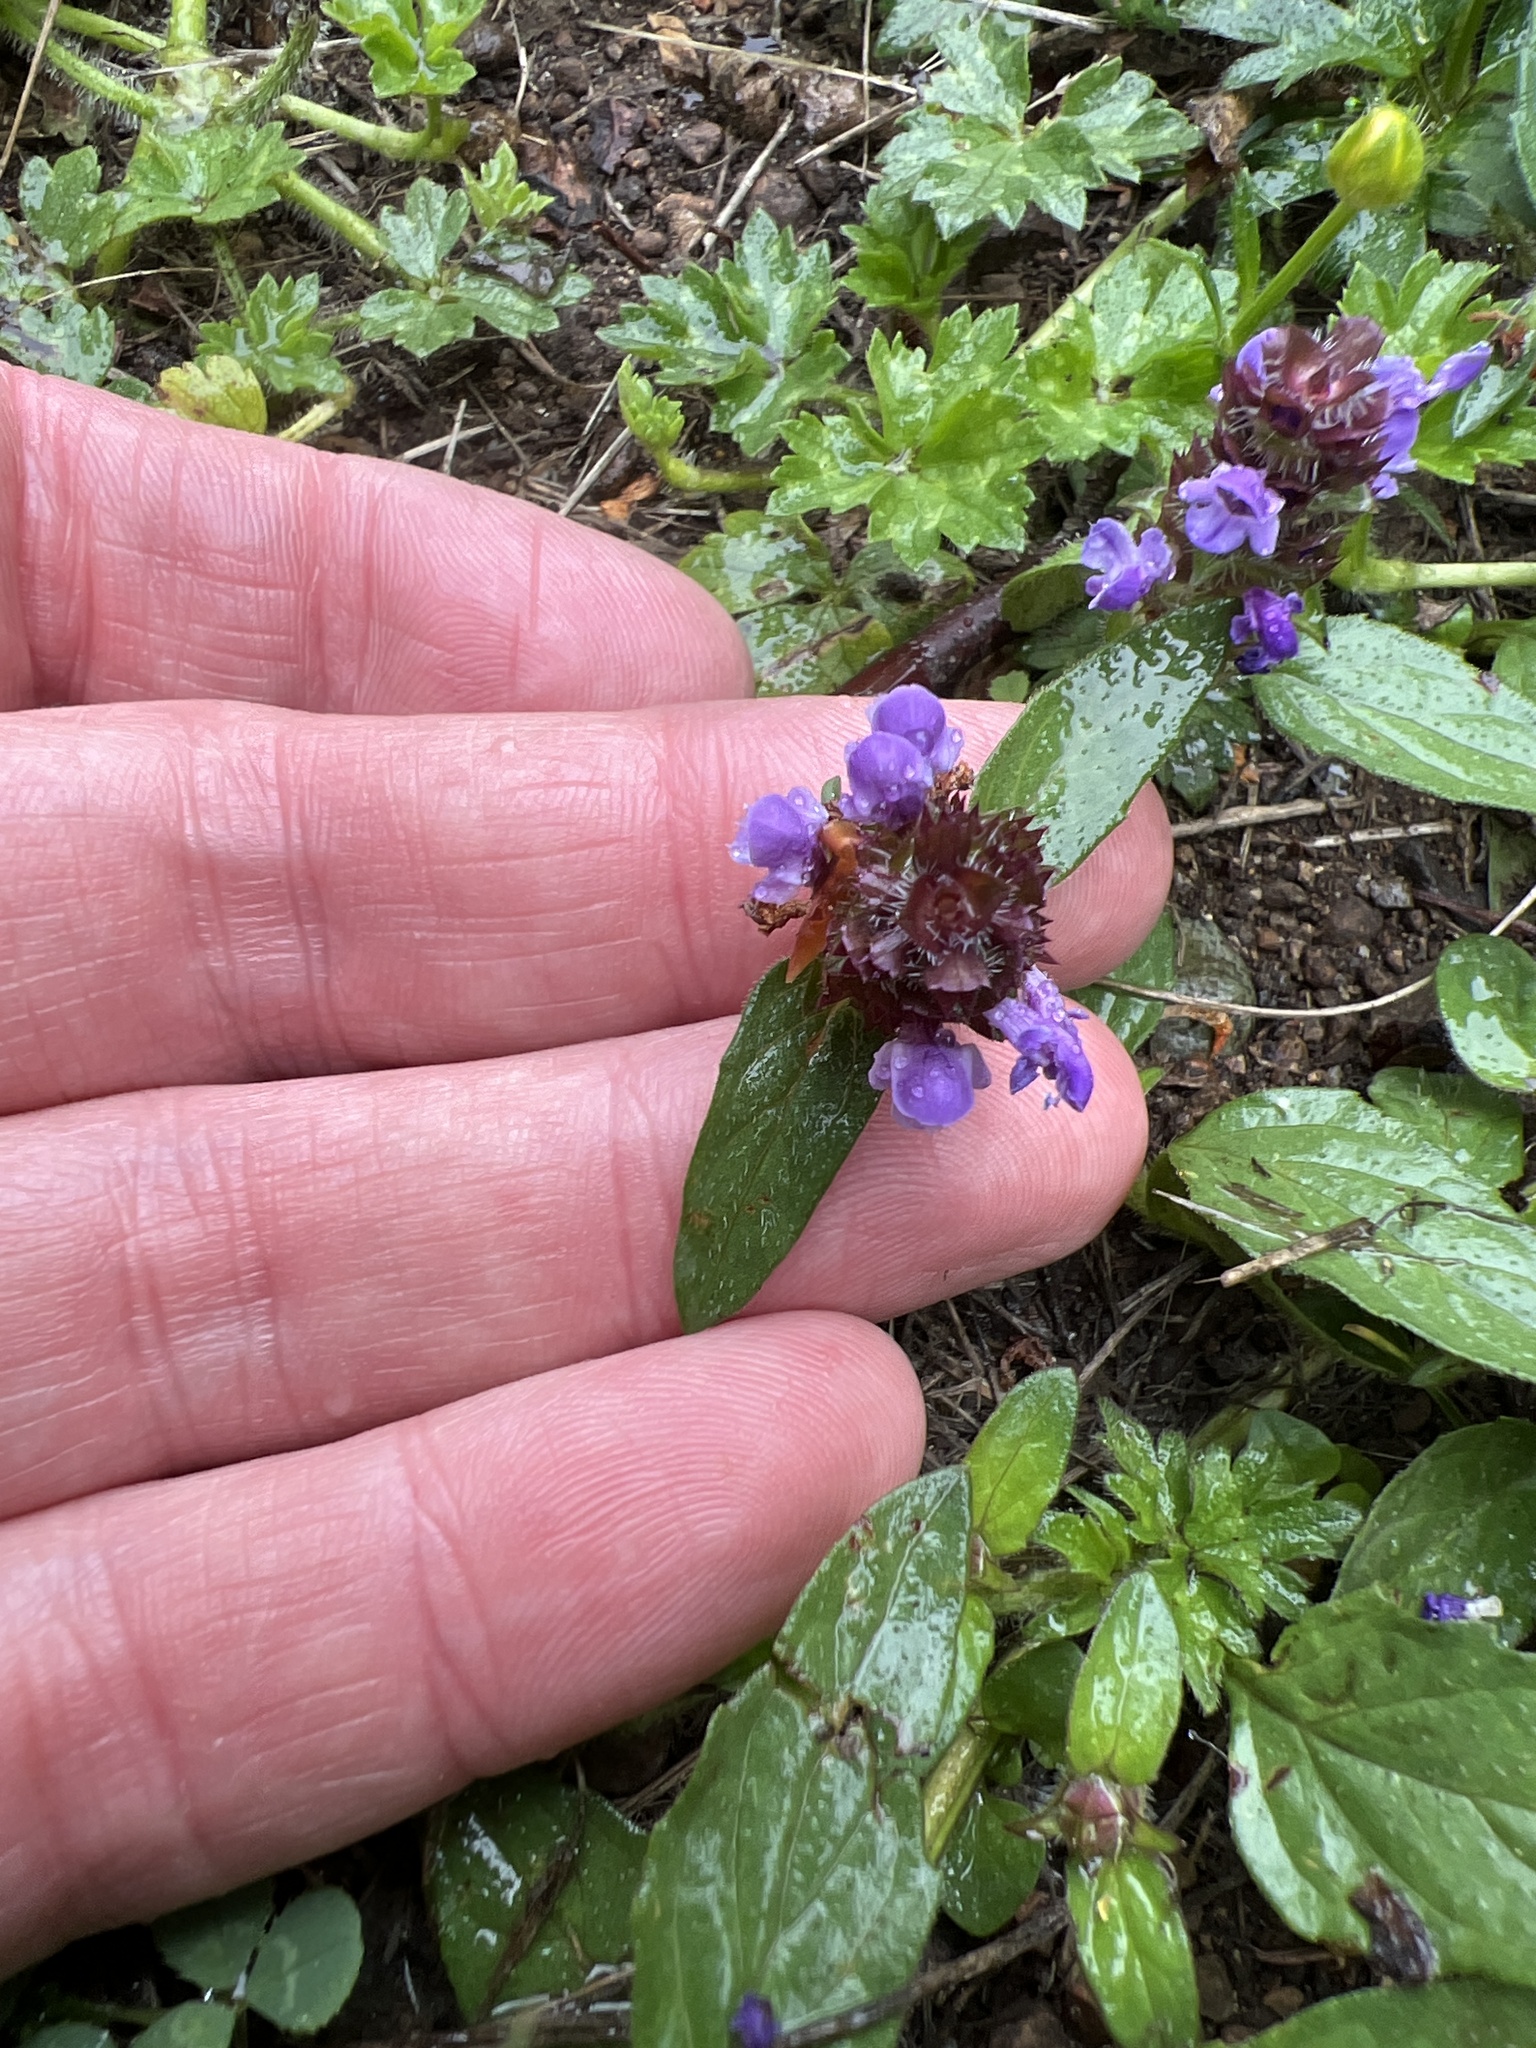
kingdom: Plantae
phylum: Tracheophyta
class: Magnoliopsida
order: Lamiales
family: Lamiaceae
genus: Prunella
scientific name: Prunella vulgaris
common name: Heal-all
